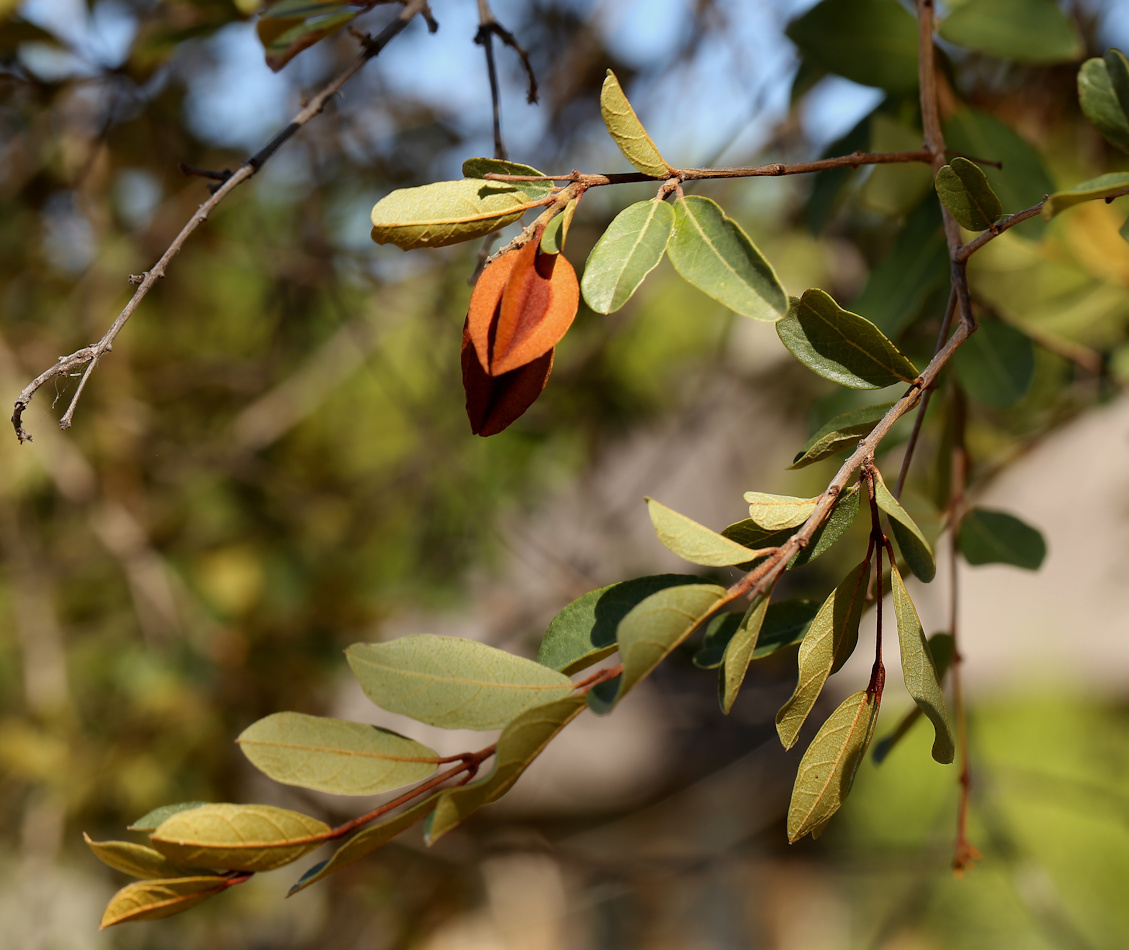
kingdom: Plantae
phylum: Tracheophyta
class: Magnoliopsida
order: Myrtales
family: Combretaceae
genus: Combretum
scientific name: Combretum hereroense
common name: Russet bushwillow
